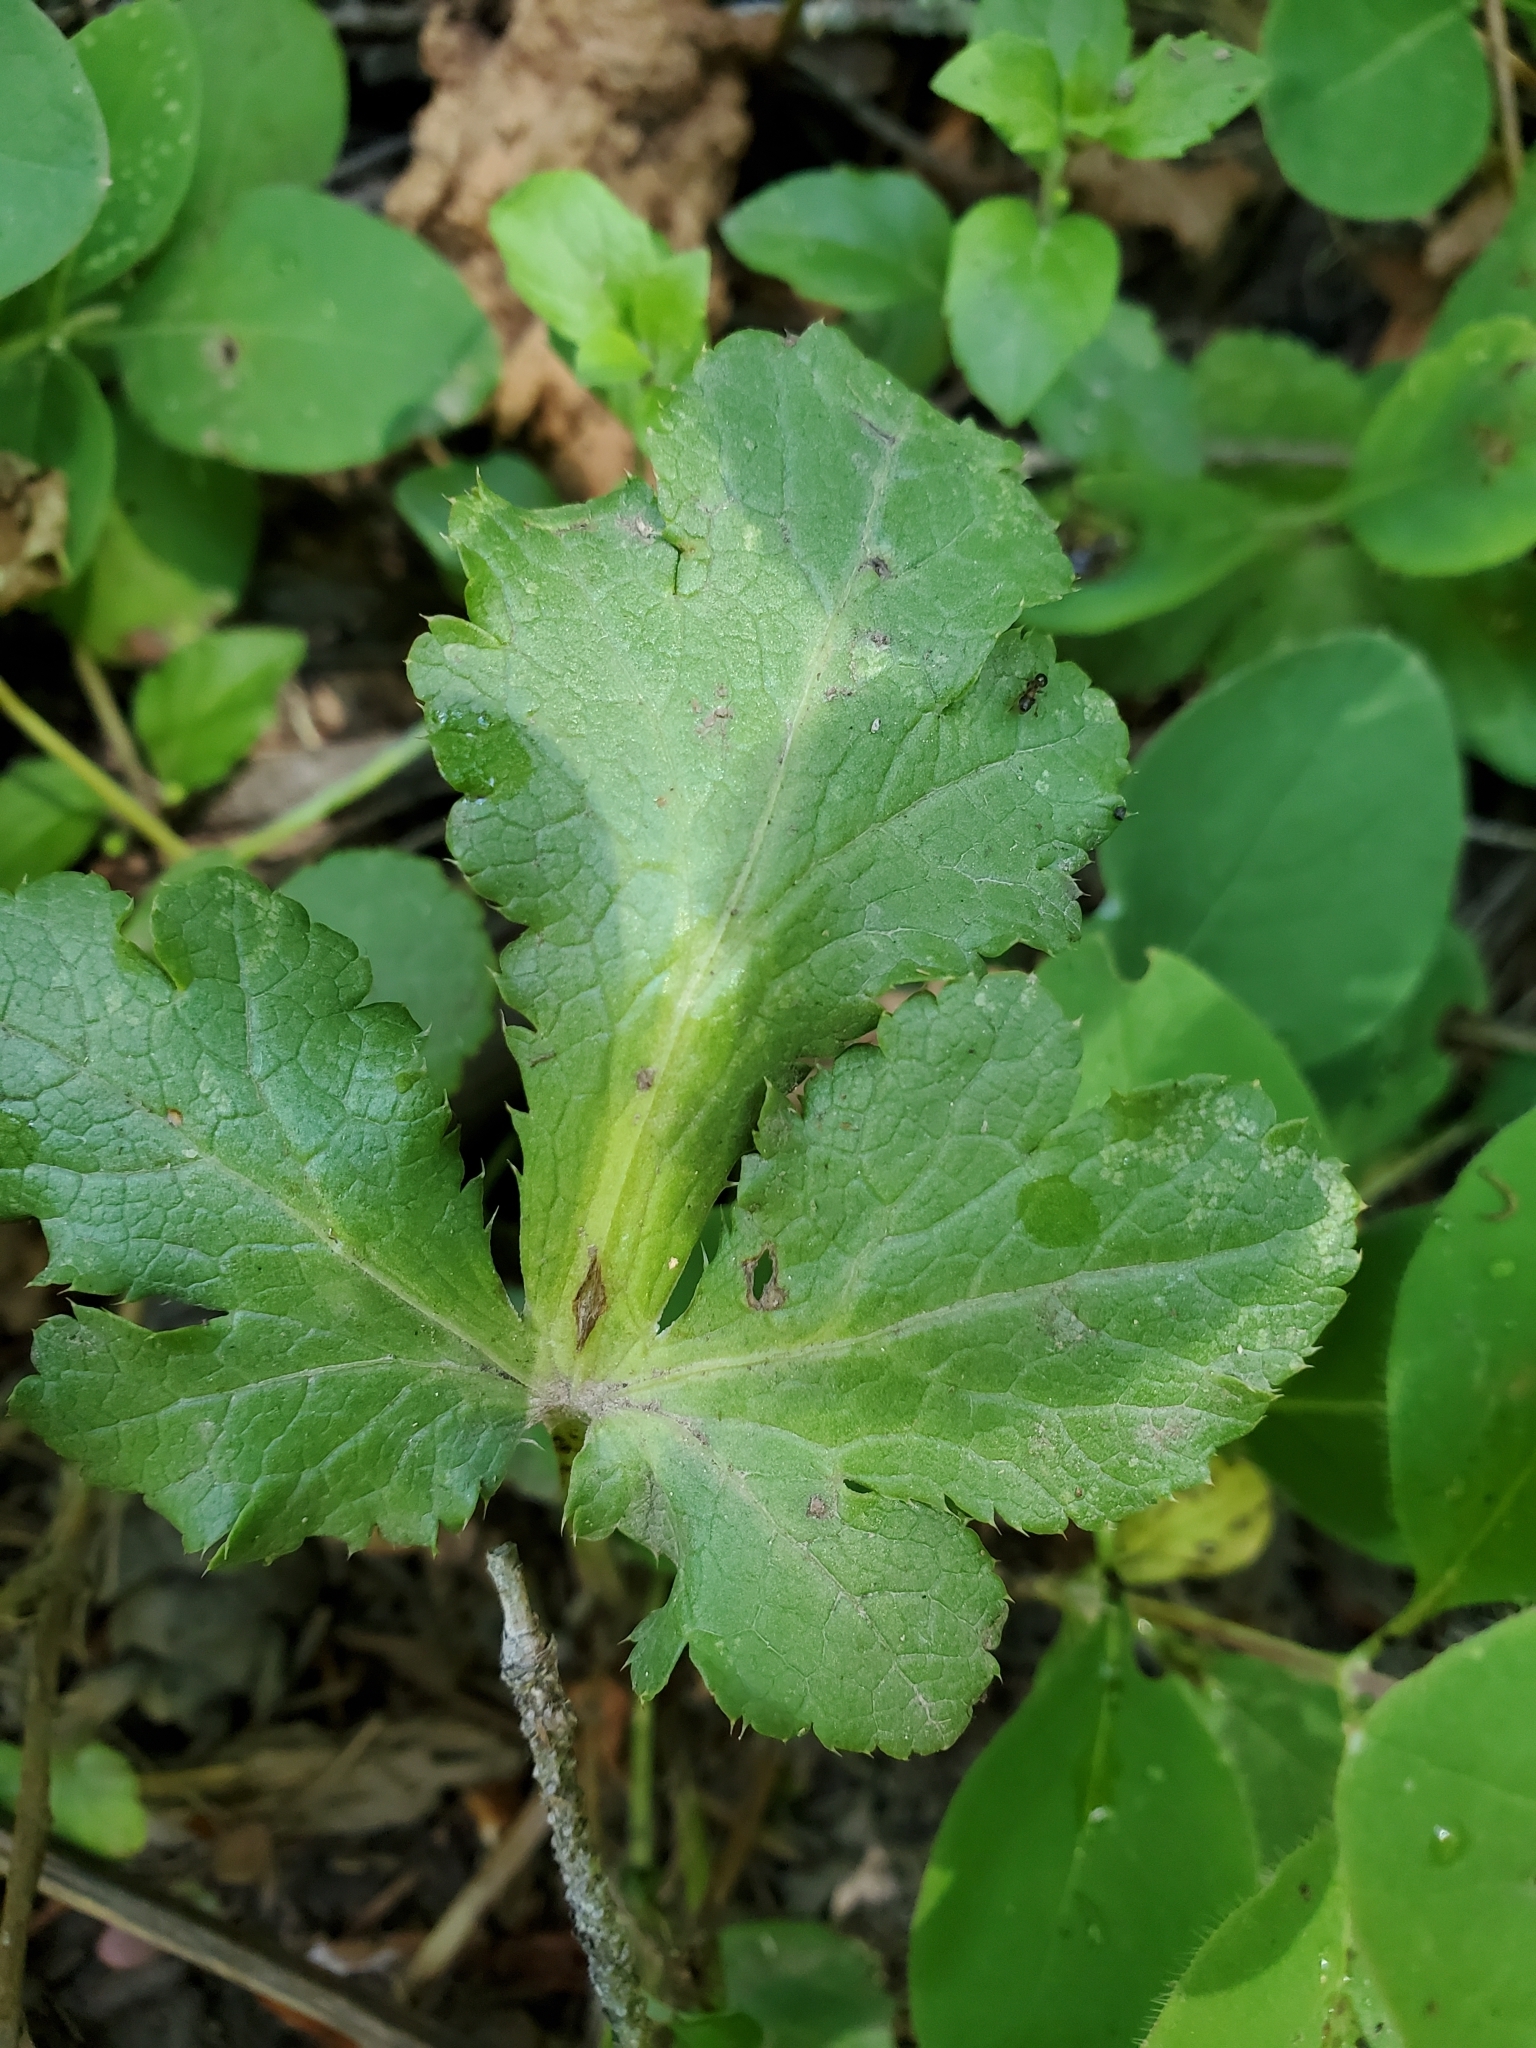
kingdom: Plantae
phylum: Tracheophyta
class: Magnoliopsida
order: Apiales
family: Apiaceae
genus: Sanicula
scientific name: Sanicula crassicaulis
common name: Western snakeroot
